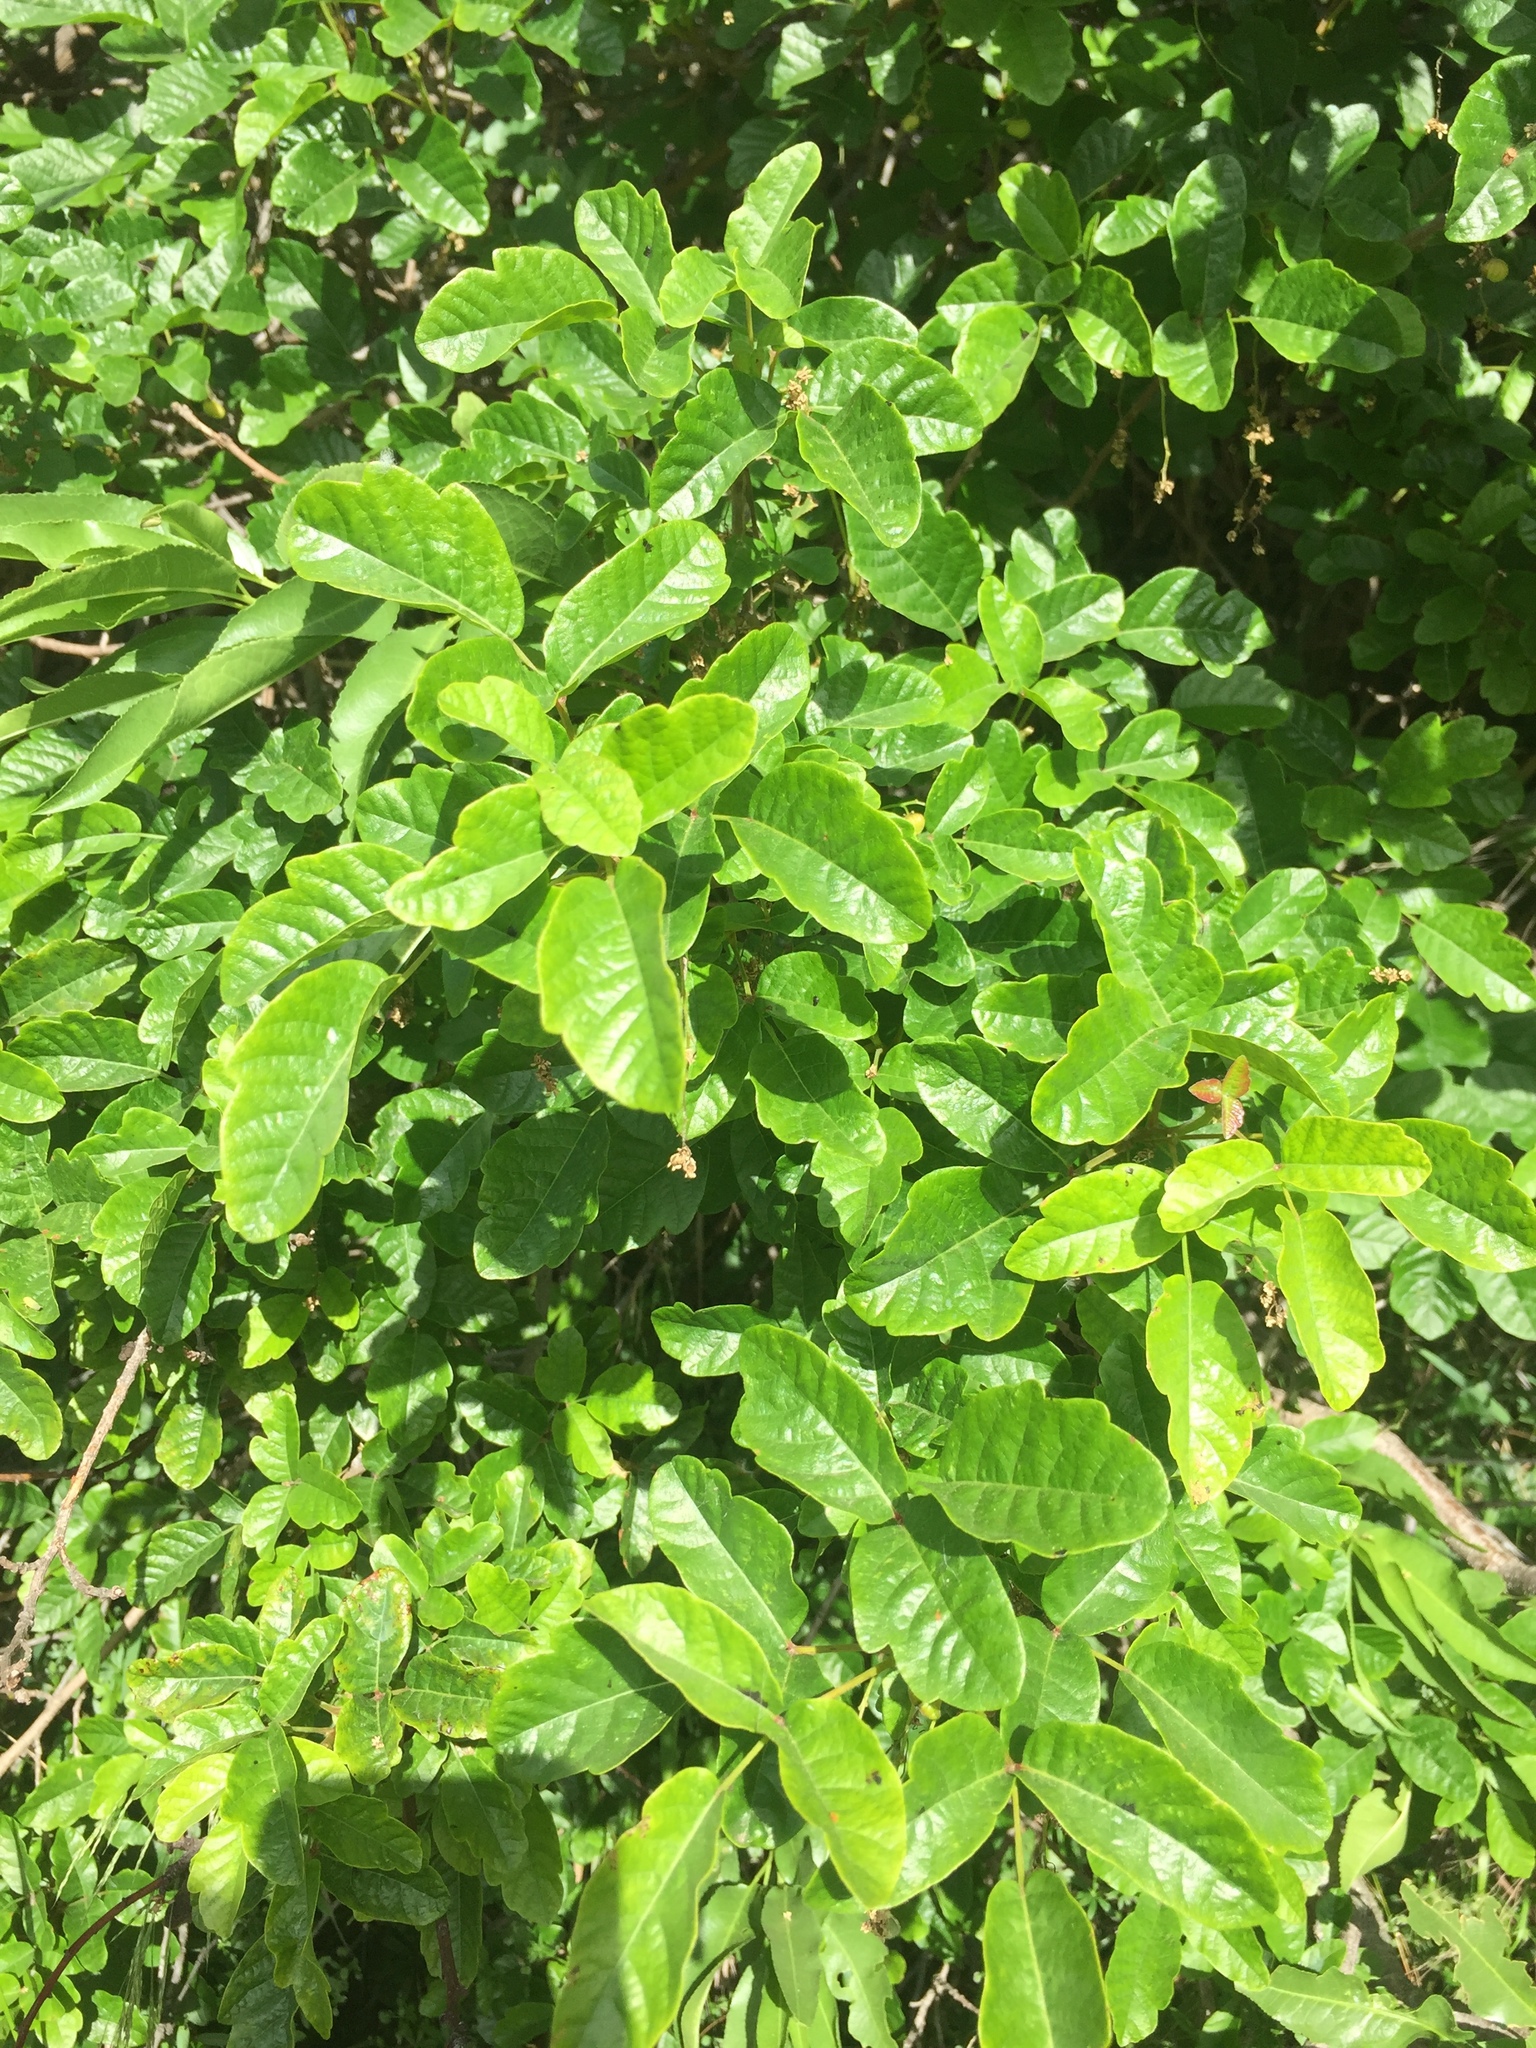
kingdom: Plantae
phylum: Tracheophyta
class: Magnoliopsida
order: Sapindales
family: Anacardiaceae
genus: Toxicodendron
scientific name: Toxicodendron diversilobum
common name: Pacific poison-oak
